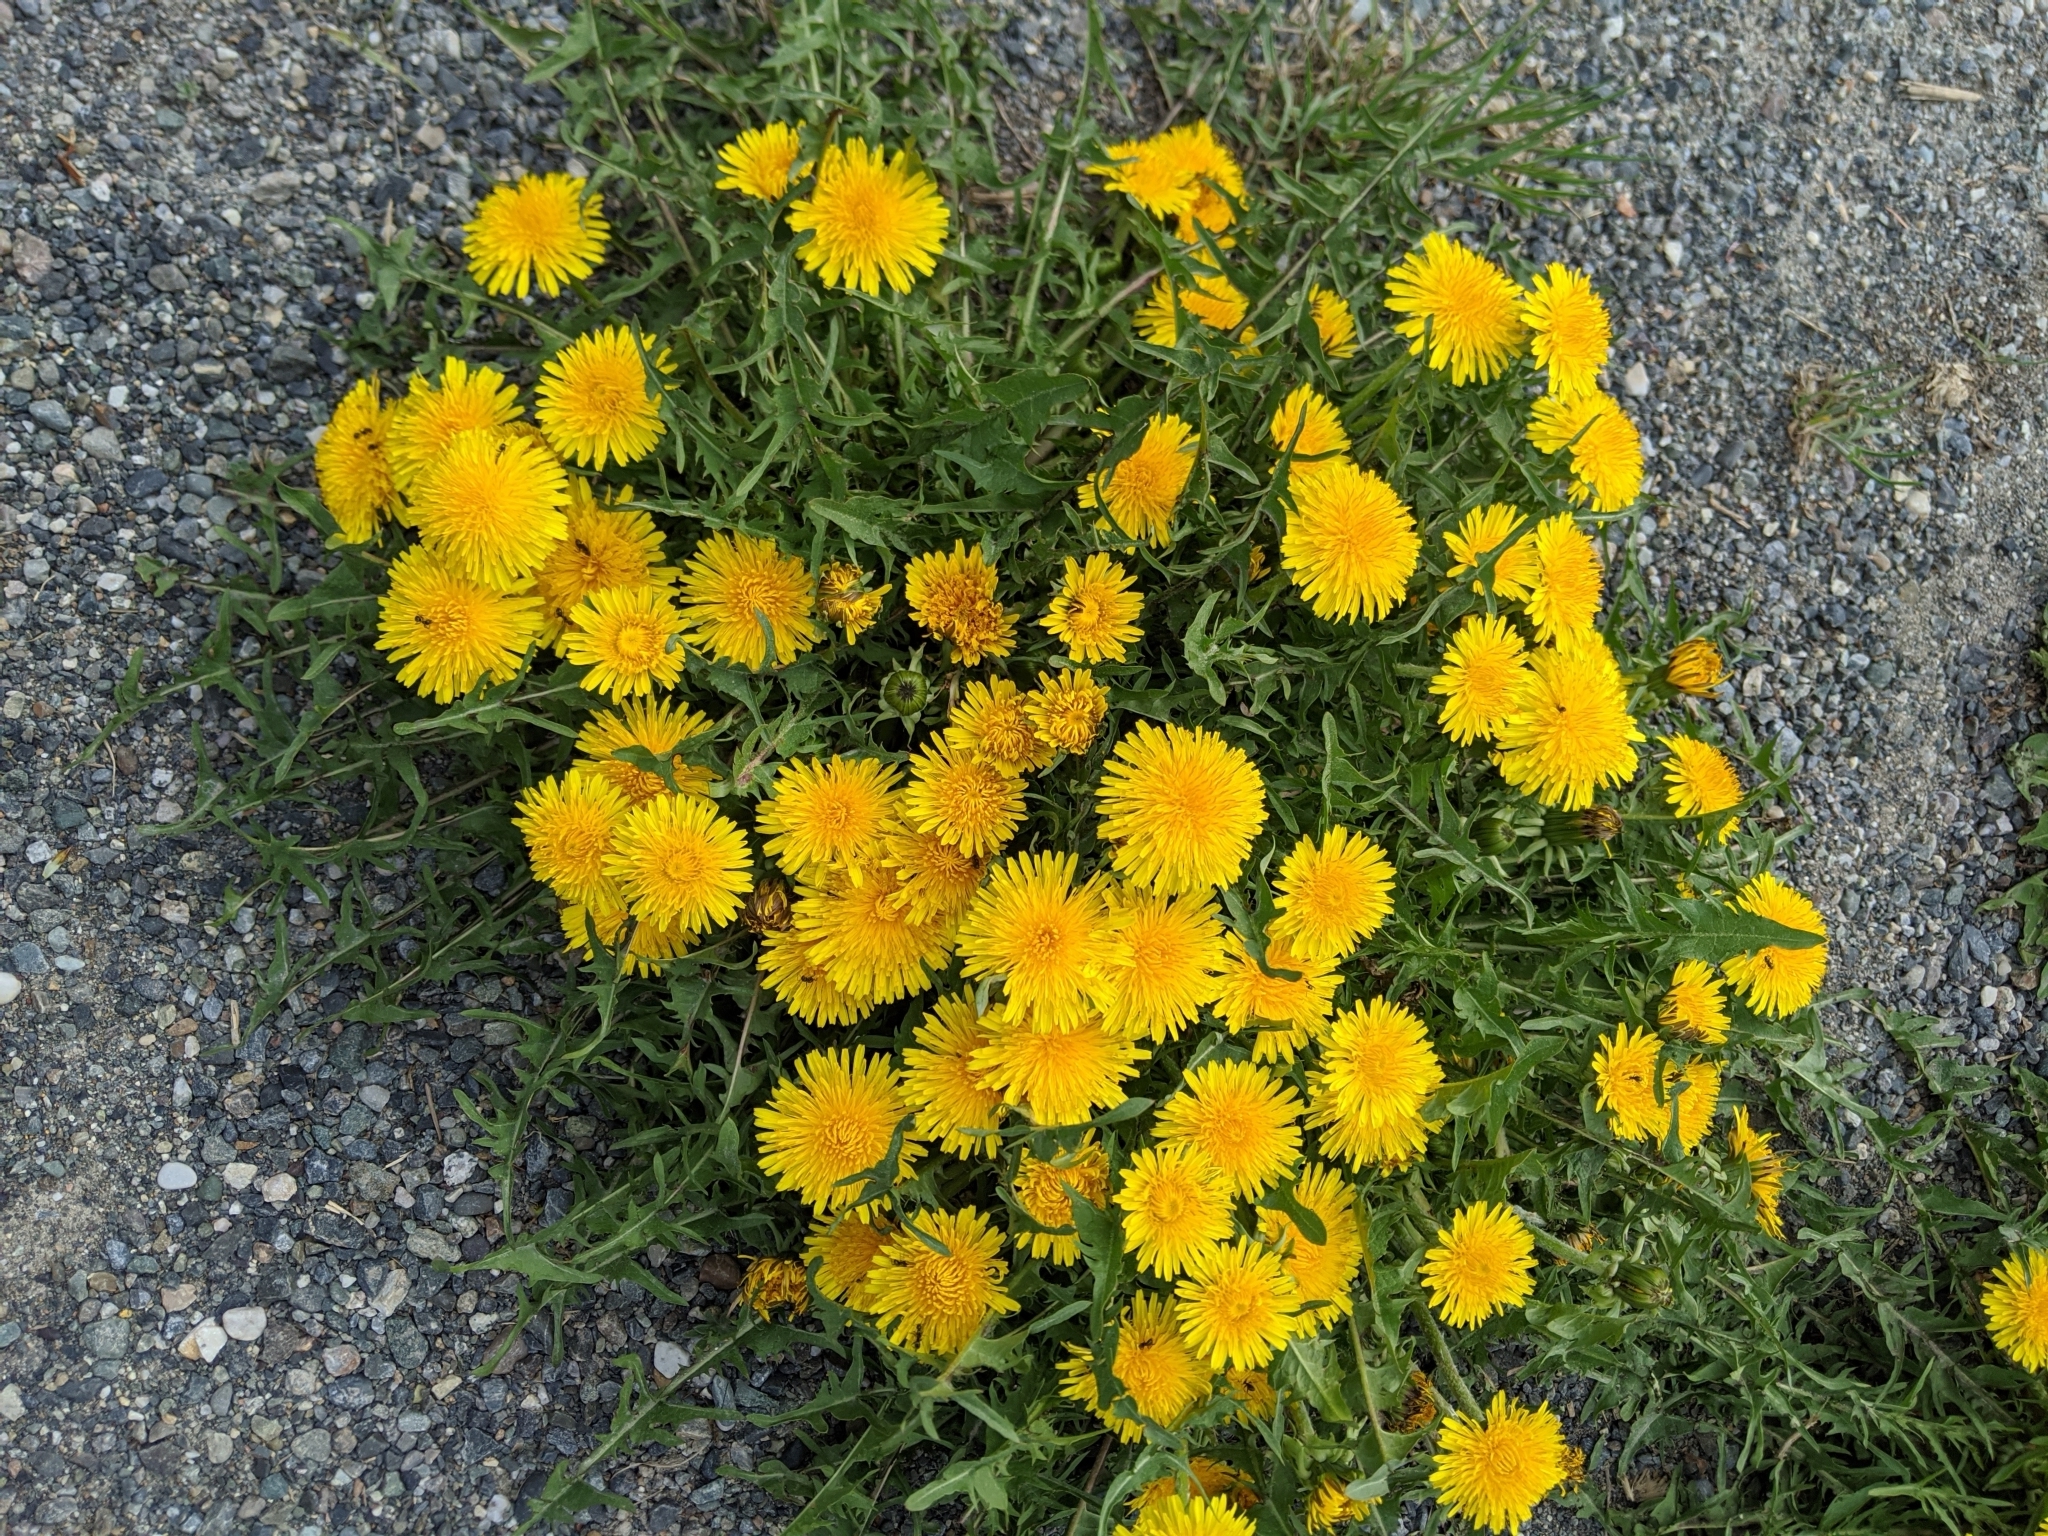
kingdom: Plantae
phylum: Tracheophyta
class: Magnoliopsida
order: Asterales
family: Asteraceae
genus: Taraxacum
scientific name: Taraxacum officinale
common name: Common dandelion
